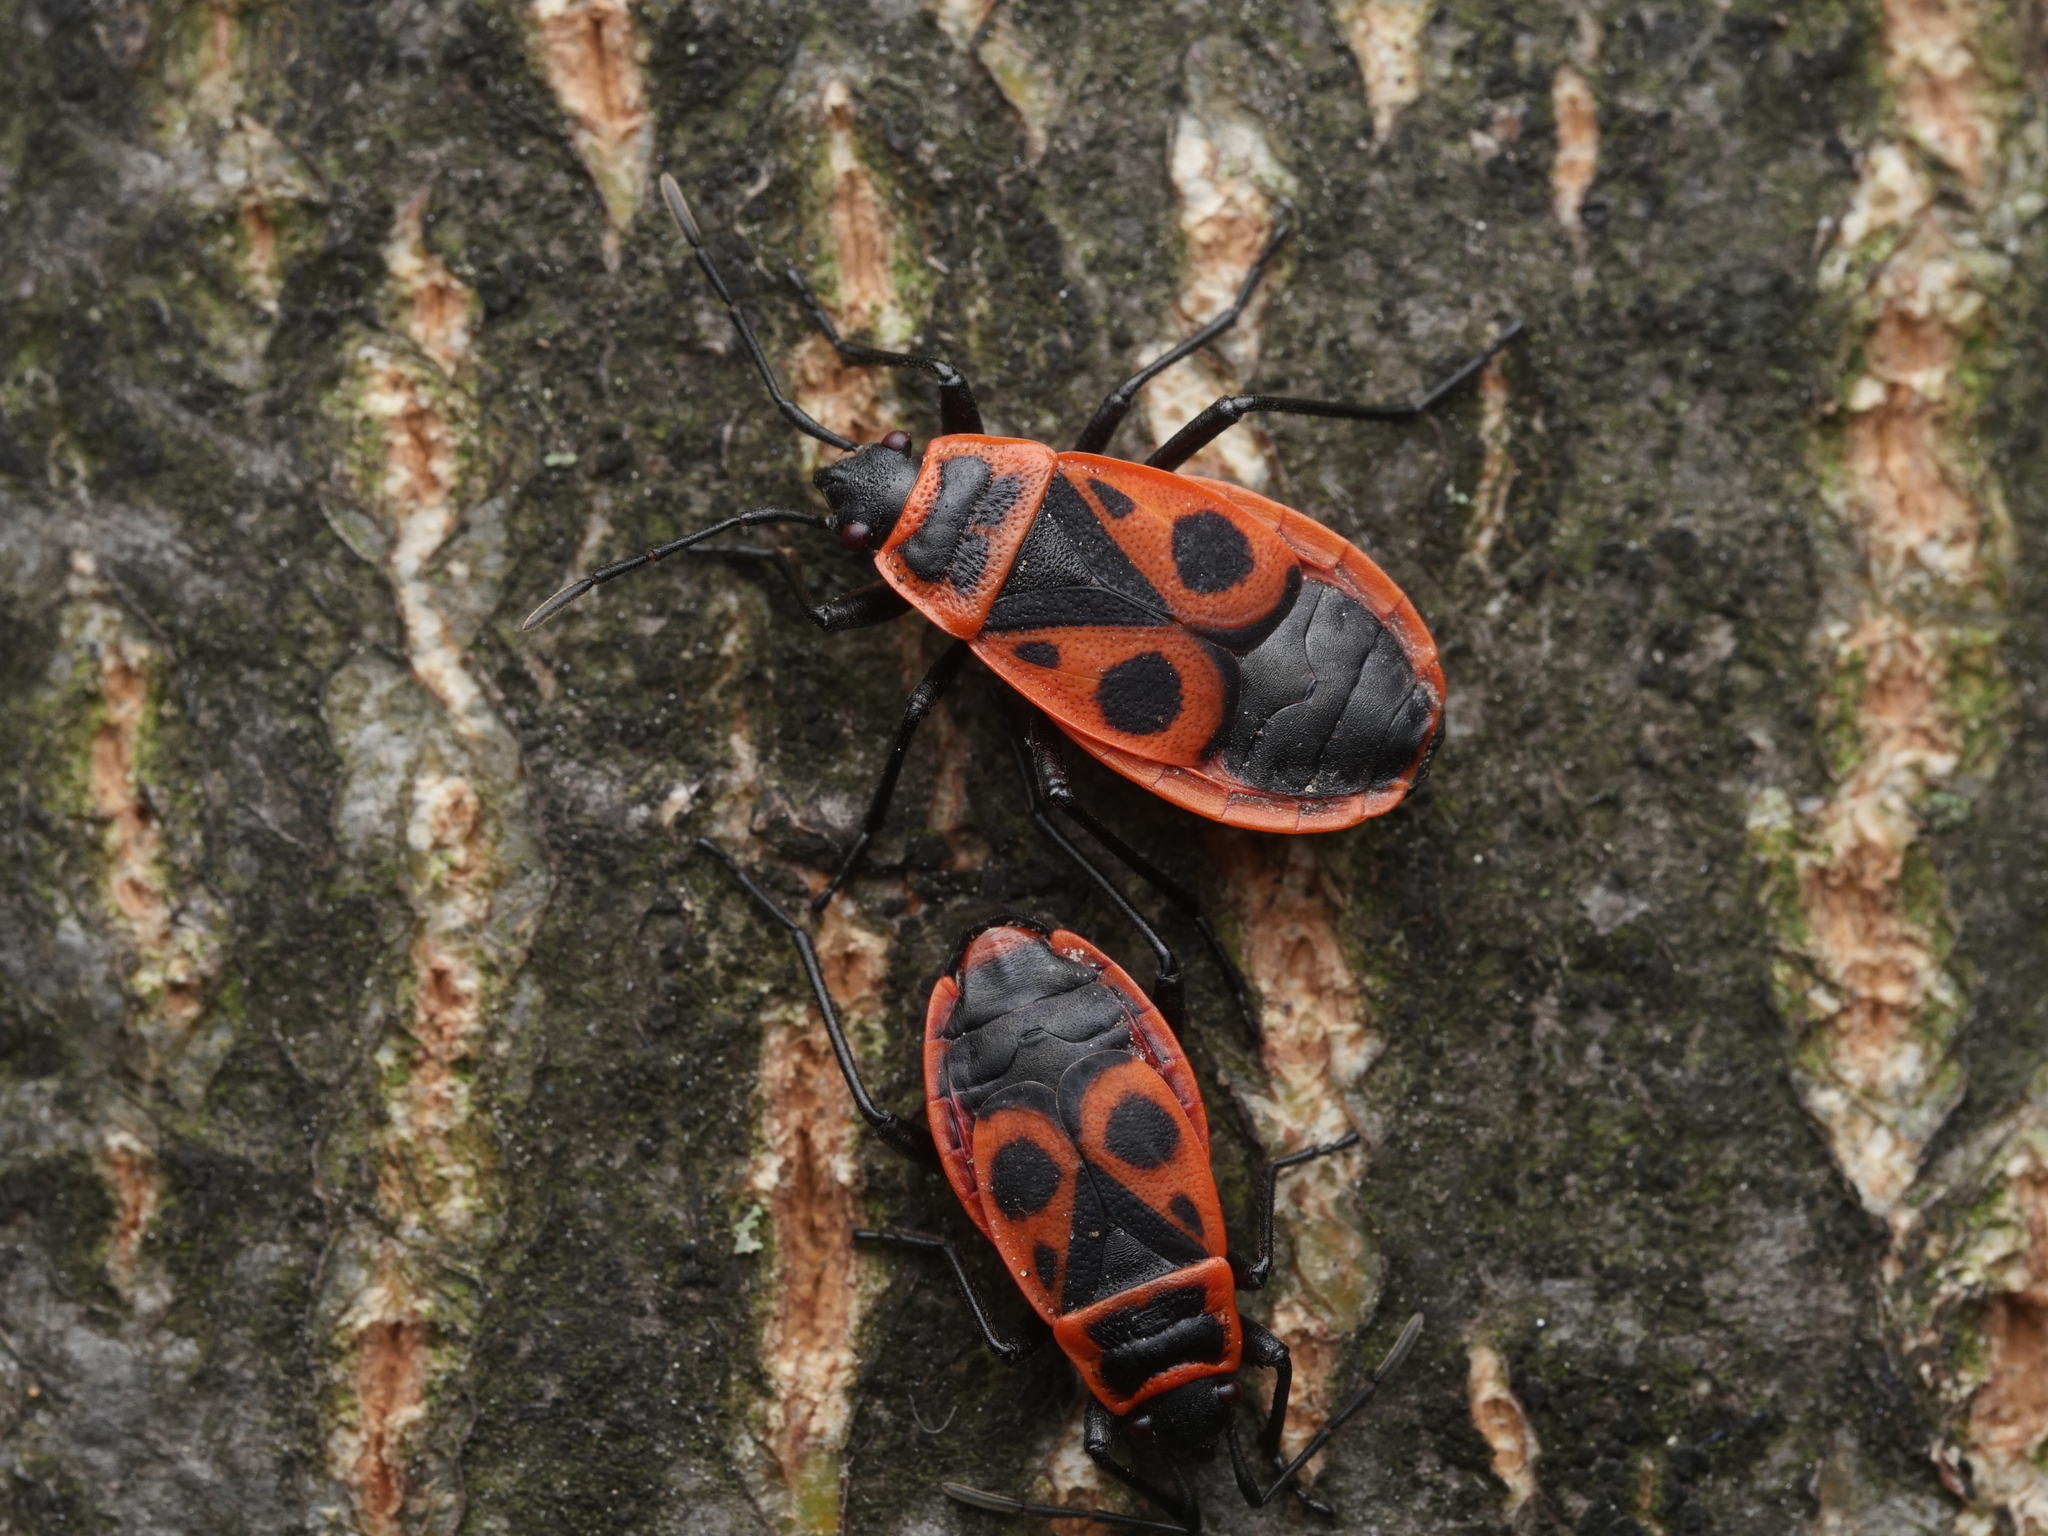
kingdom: Animalia
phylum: Arthropoda
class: Insecta
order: Hemiptera
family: Pyrrhocoridae
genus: Pyrrhocoris
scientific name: Pyrrhocoris apterus
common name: Firebug
